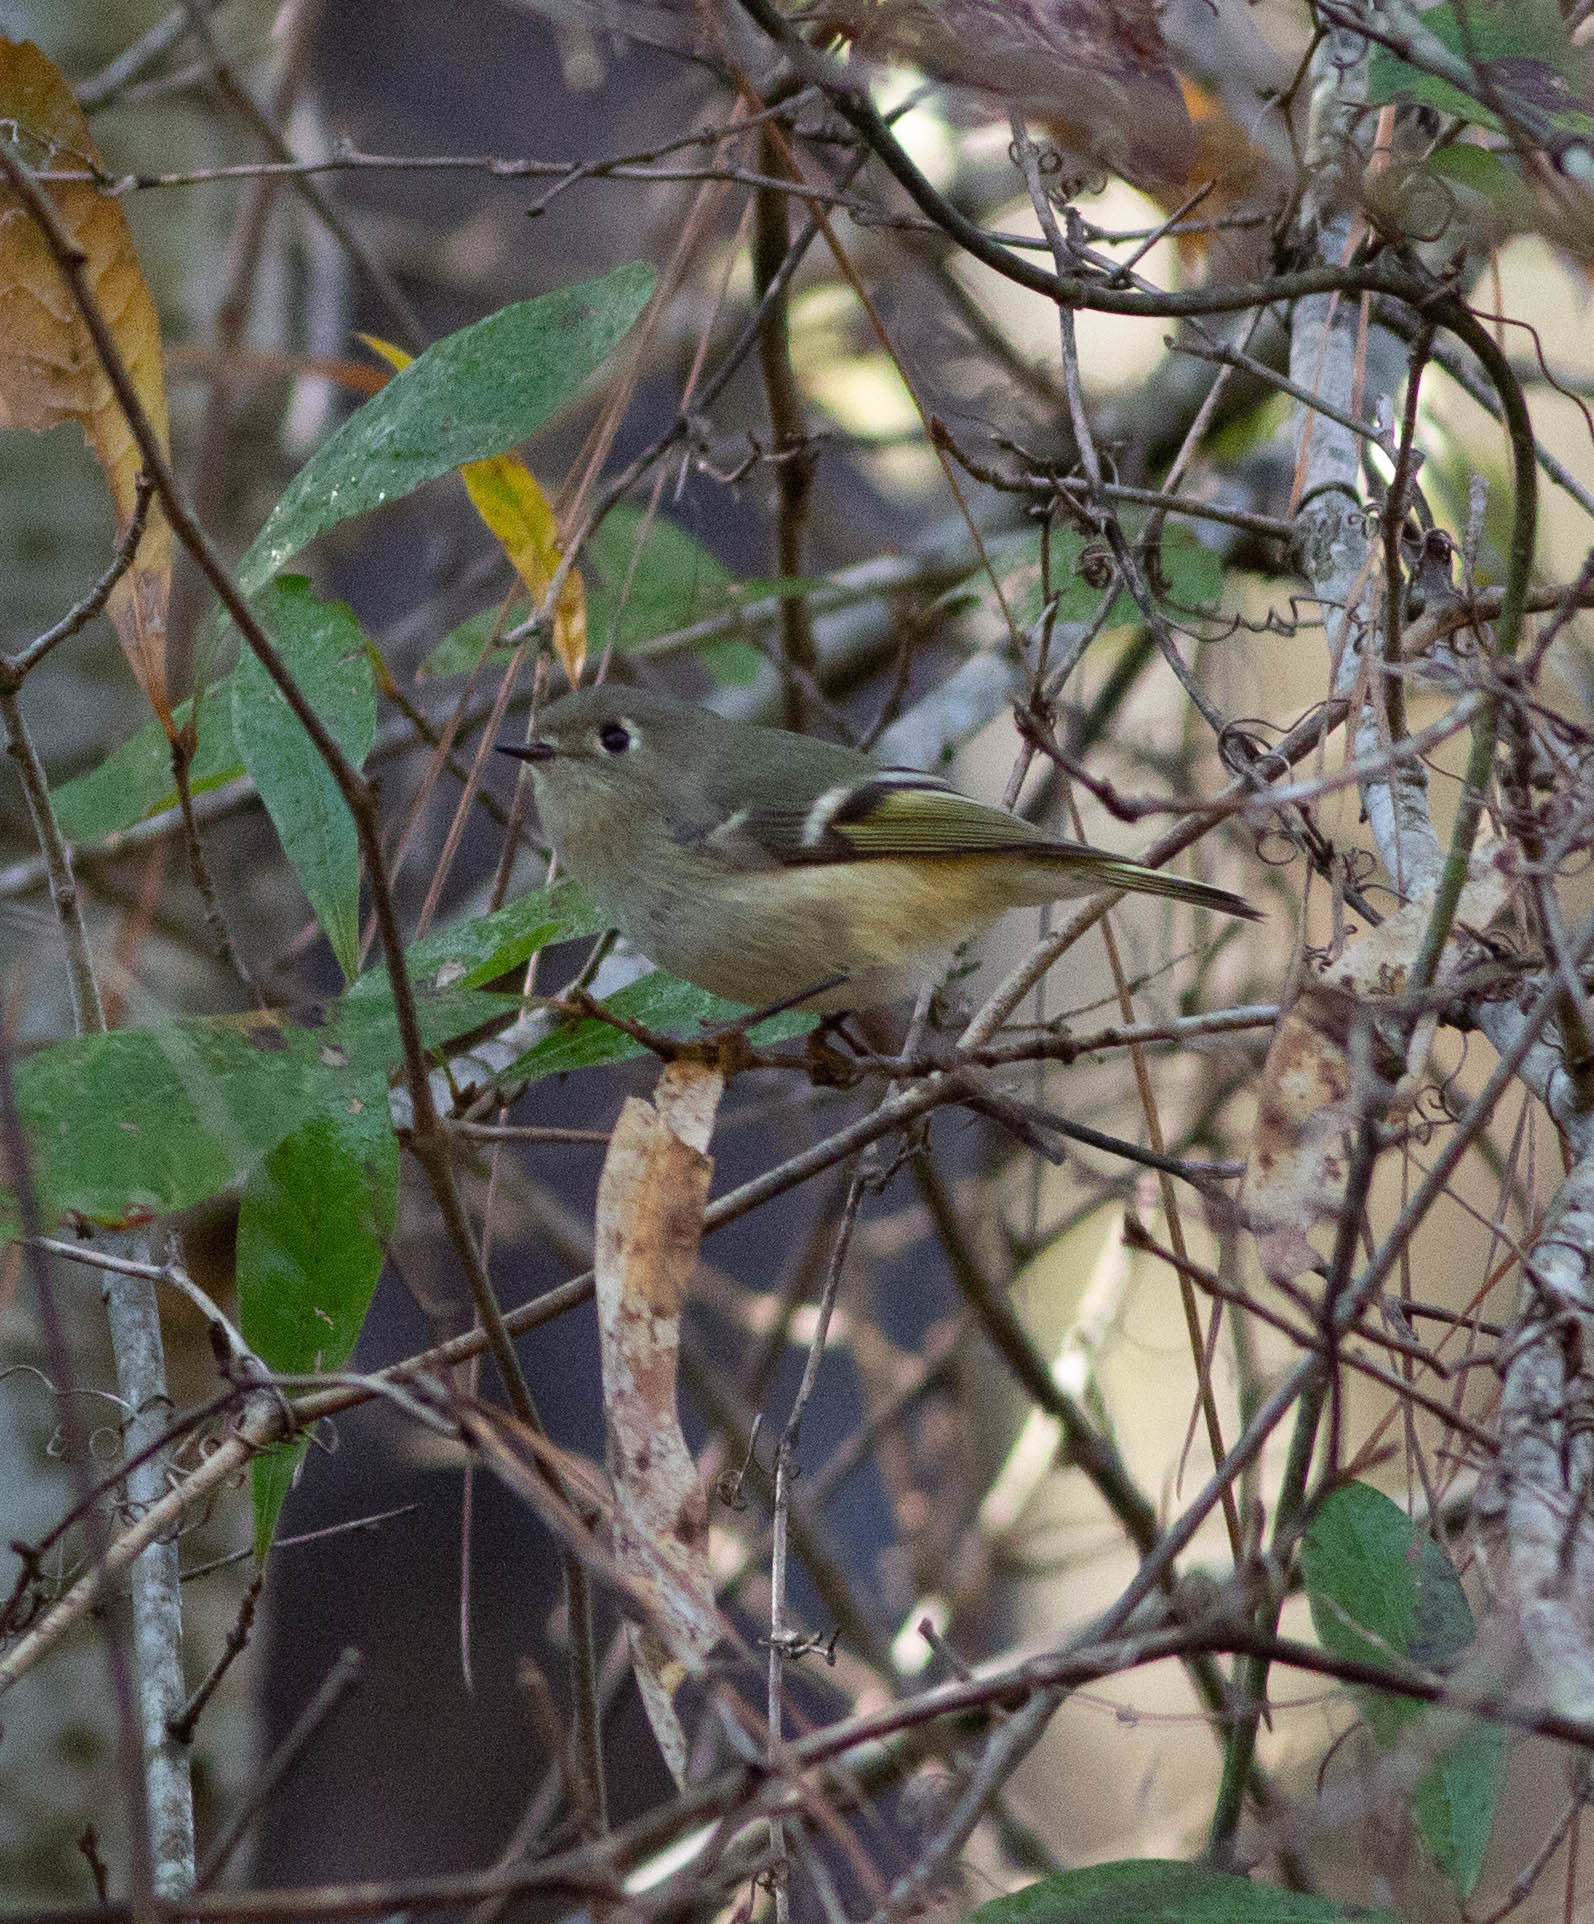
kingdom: Animalia
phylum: Chordata
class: Aves
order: Passeriformes
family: Regulidae
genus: Regulus
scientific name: Regulus calendula
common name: Ruby-crowned kinglet
